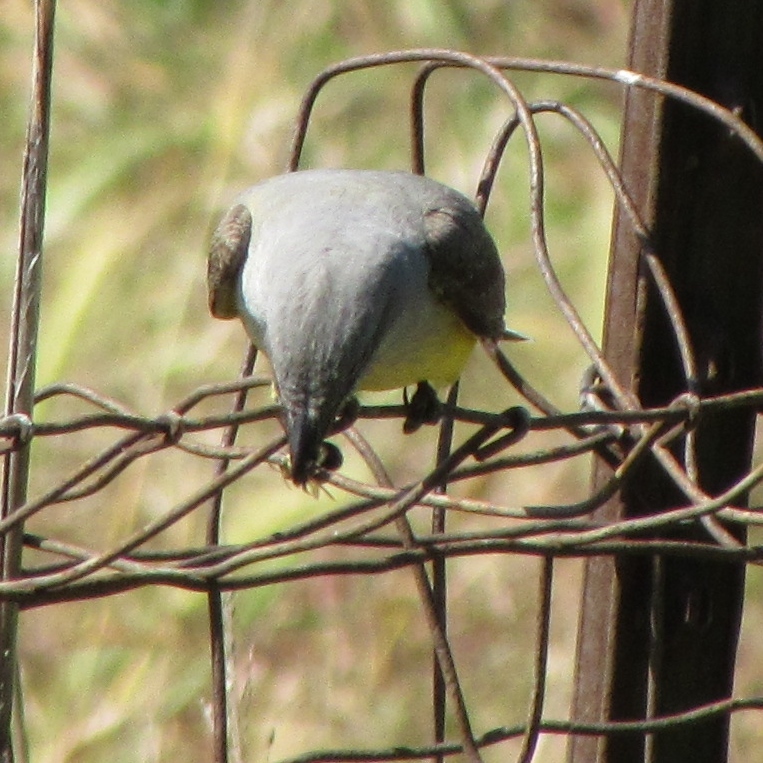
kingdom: Animalia
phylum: Chordata
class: Aves
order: Passeriformes
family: Tyrannidae
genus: Tyrannus
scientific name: Tyrannus verticalis
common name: Western kingbird
